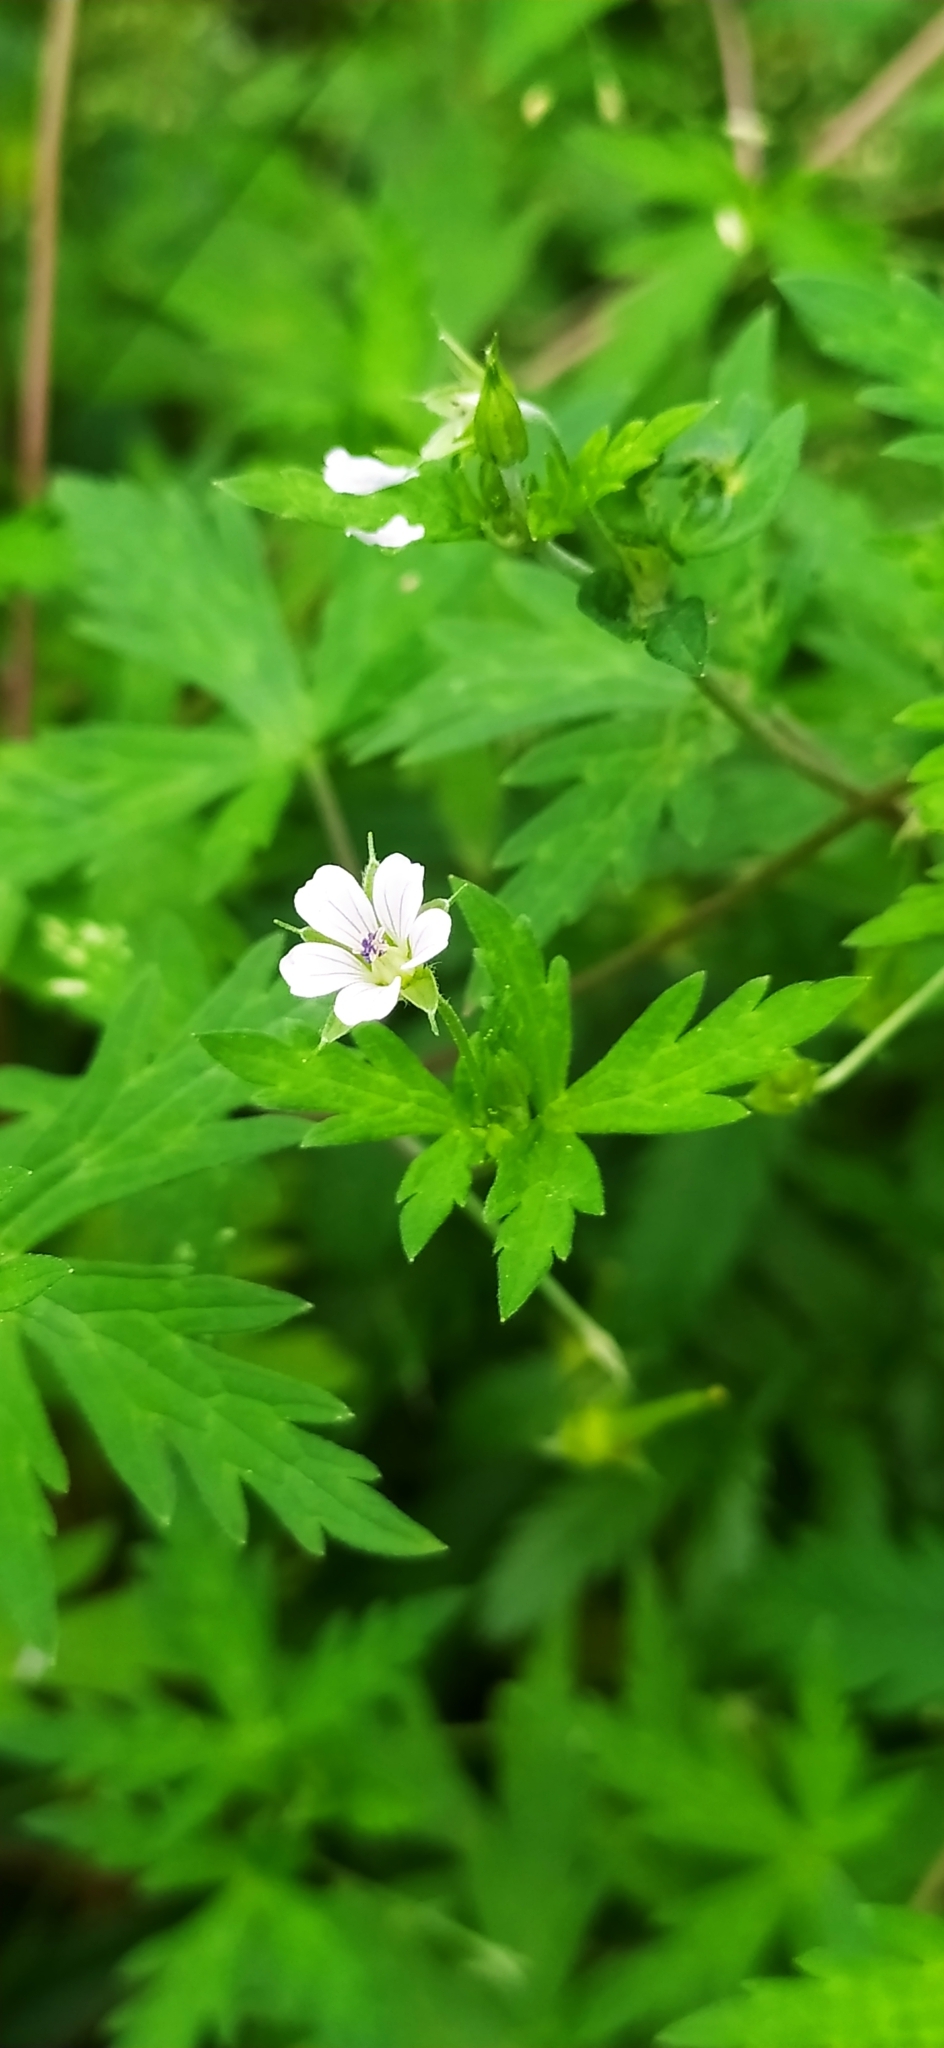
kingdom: Plantae
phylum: Tracheophyta
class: Magnoliopsida
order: Geraniales
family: Geraniaceae
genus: Geranium
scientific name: Geranium sibiricum
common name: Siberian crane's-bill
